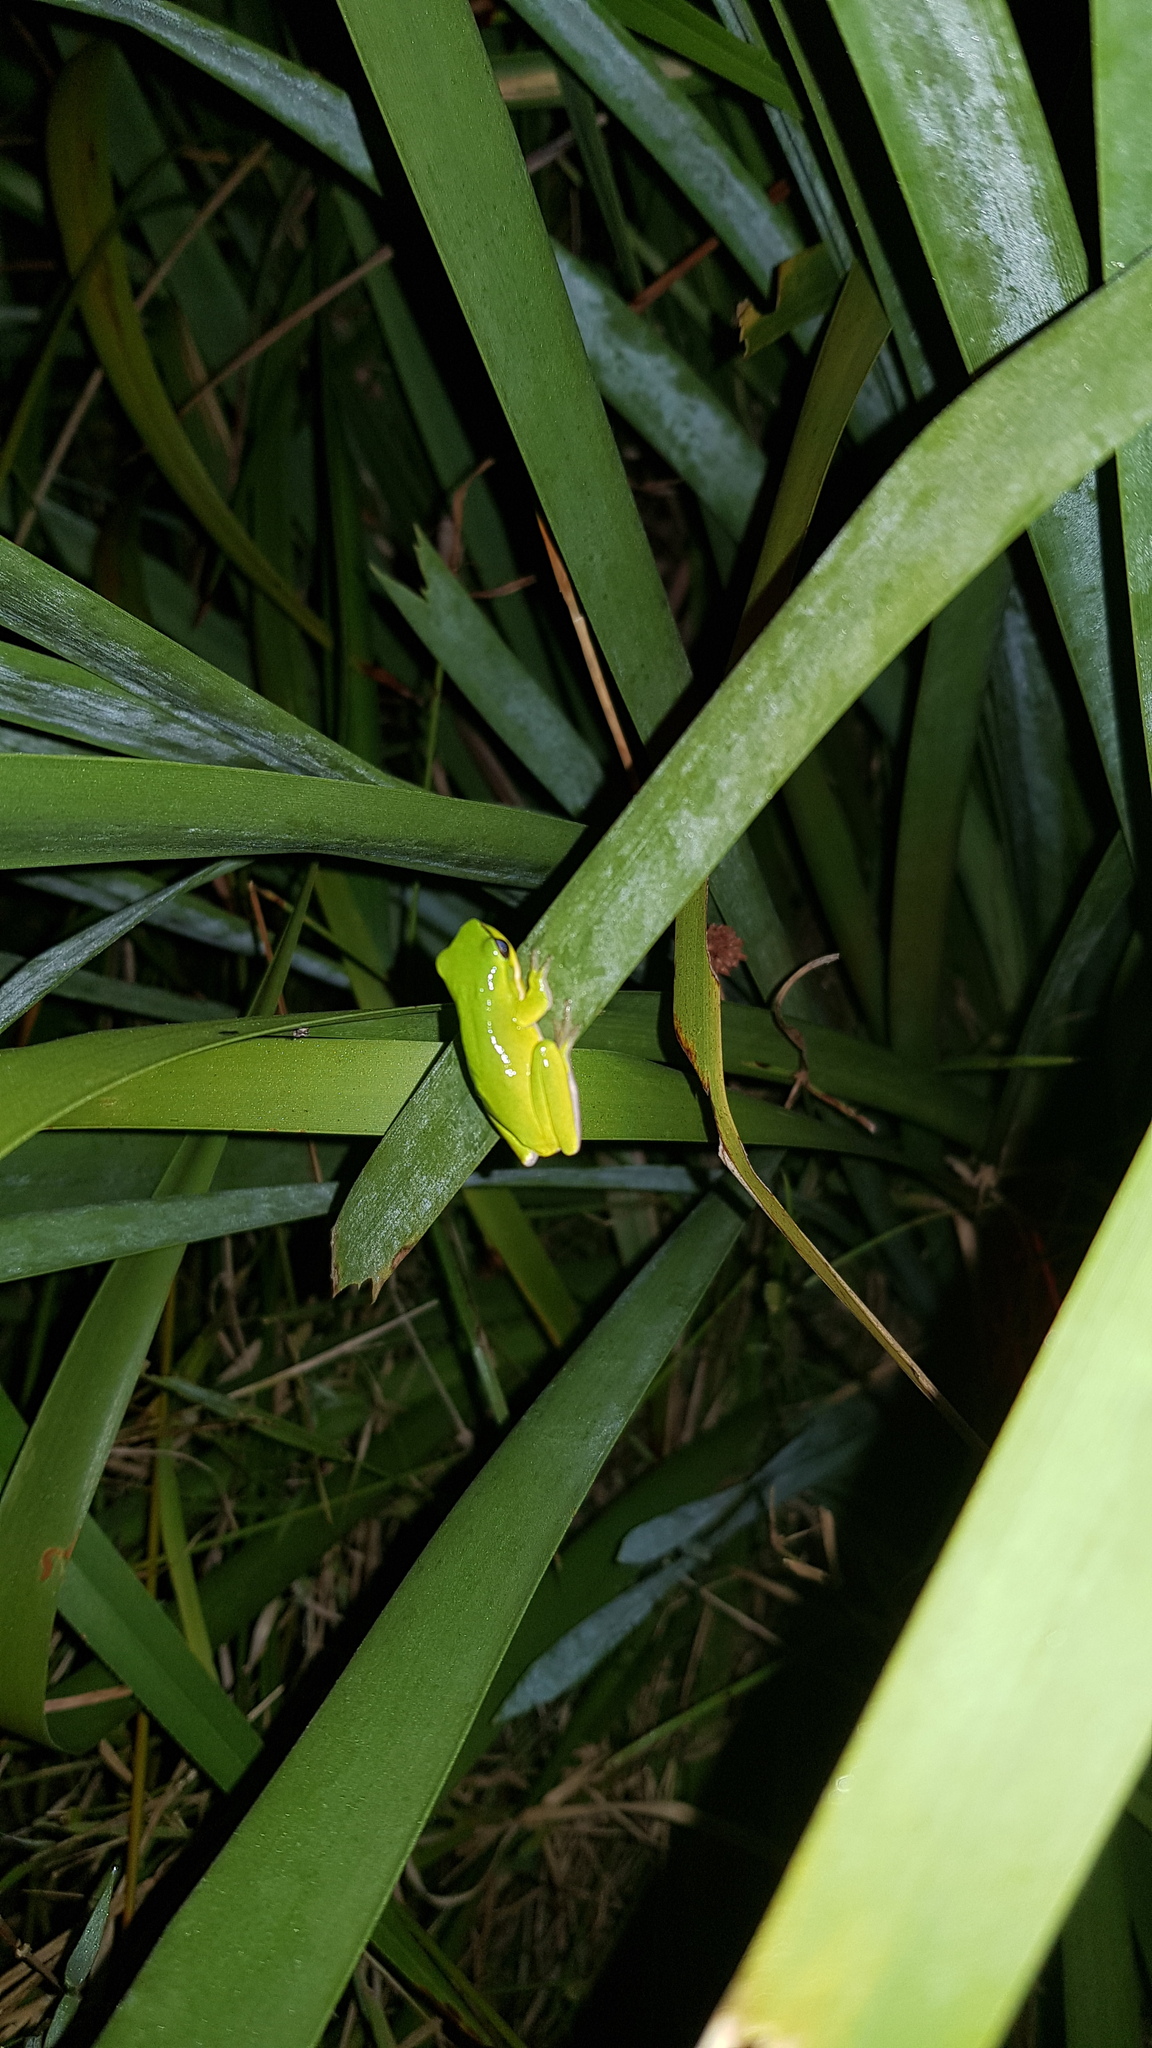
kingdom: Animalia
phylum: Chordata
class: Amphibia
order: Anura
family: Pelodryadidae
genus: Litoria
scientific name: Litoria fallax
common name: Eastern dwarf treefrog
